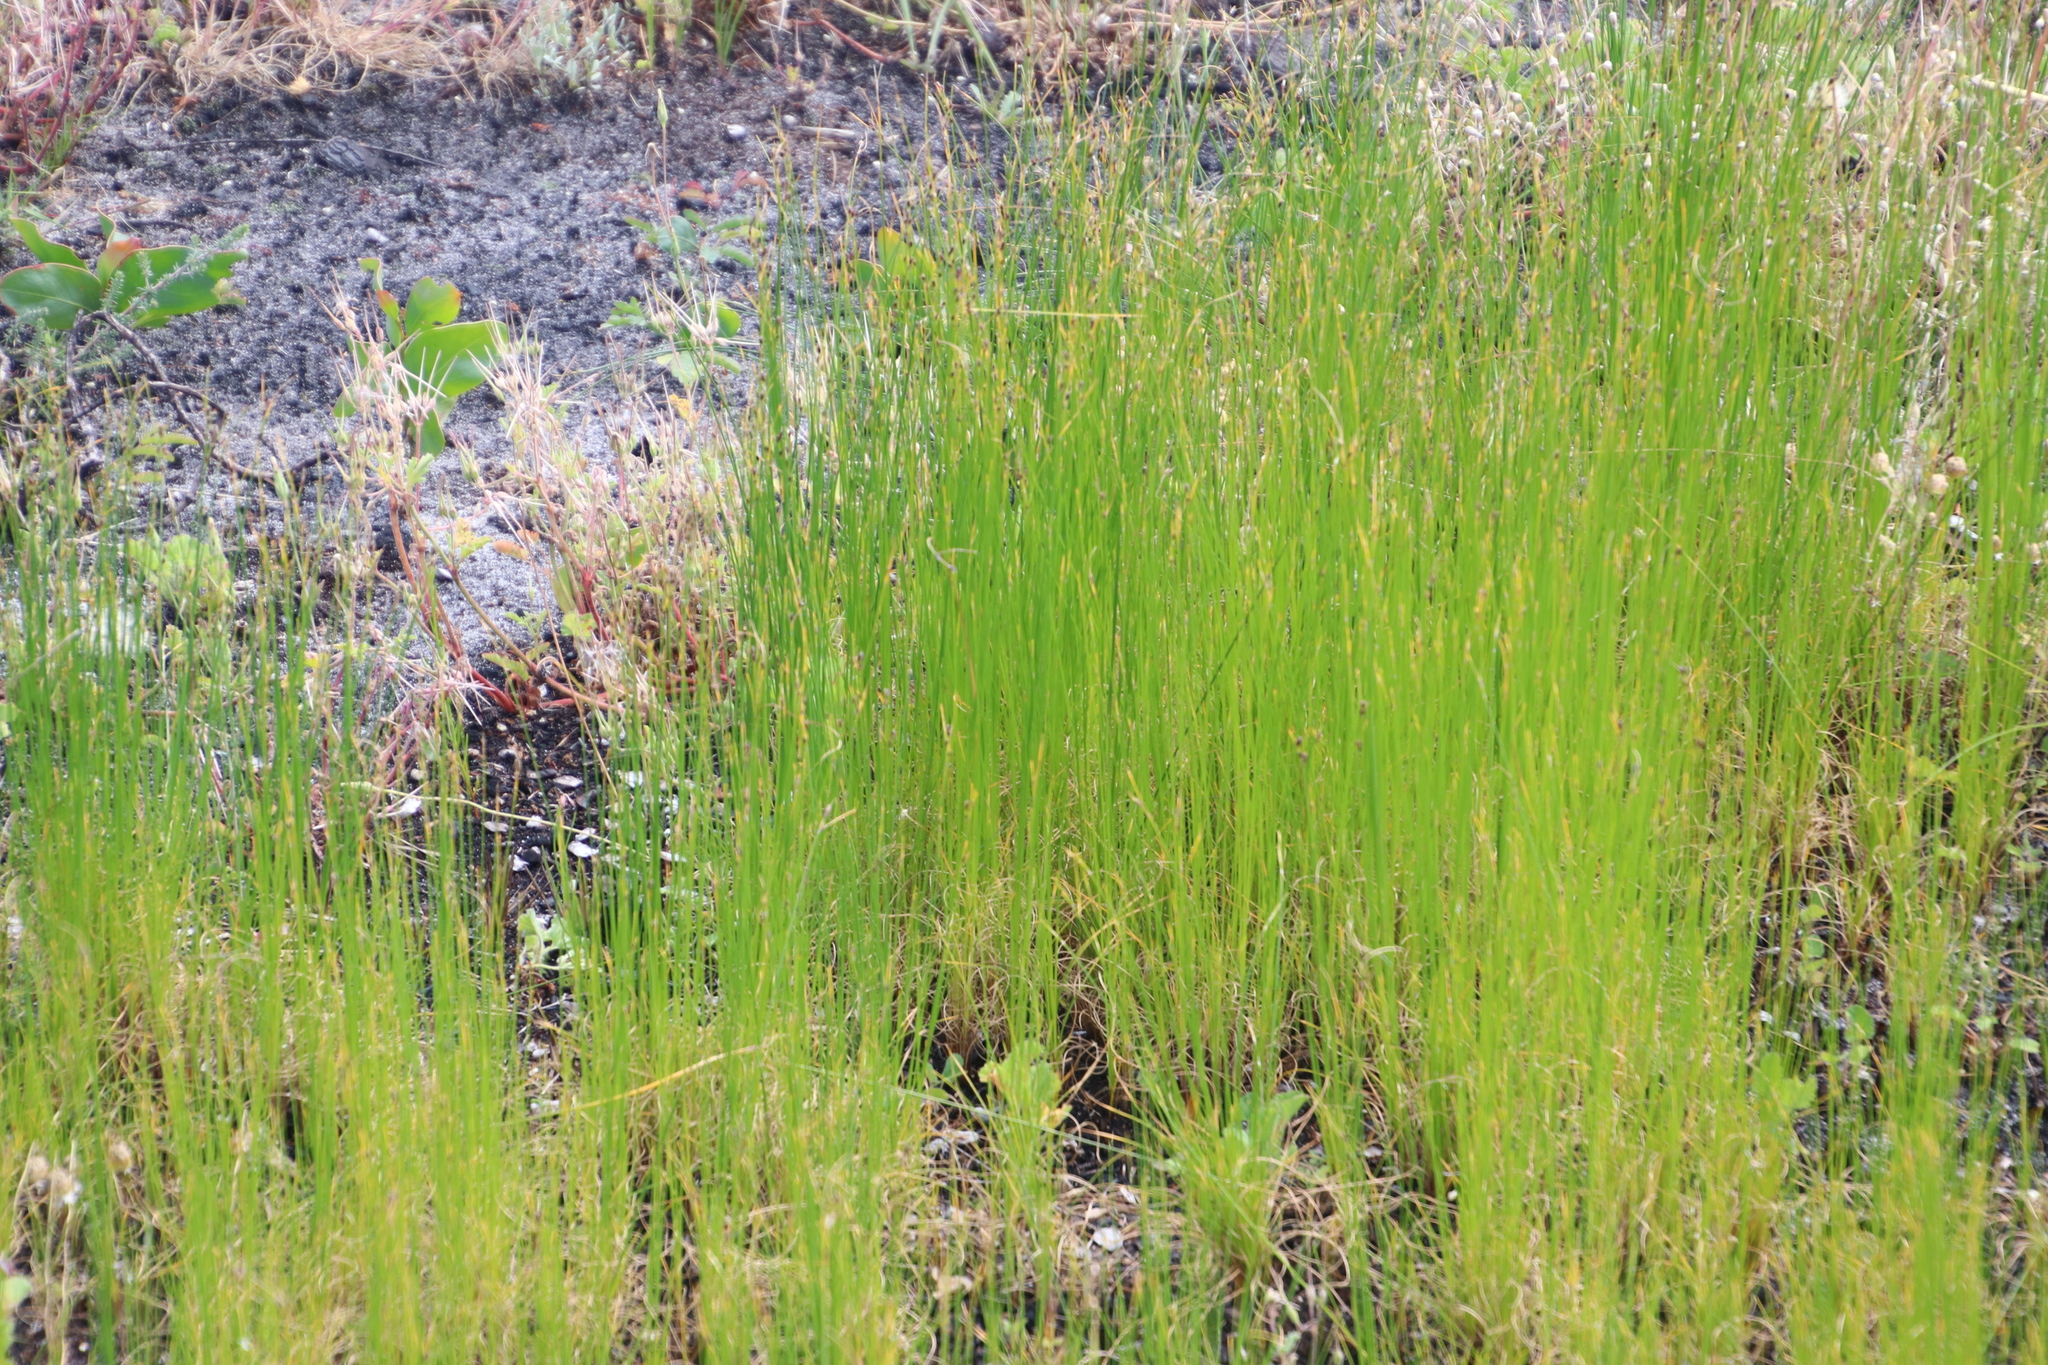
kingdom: Plantae
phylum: Tracheophyta
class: Liliopsida
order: Poales
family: Cyperaceae
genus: Ficinia
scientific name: Ficinia secunda
